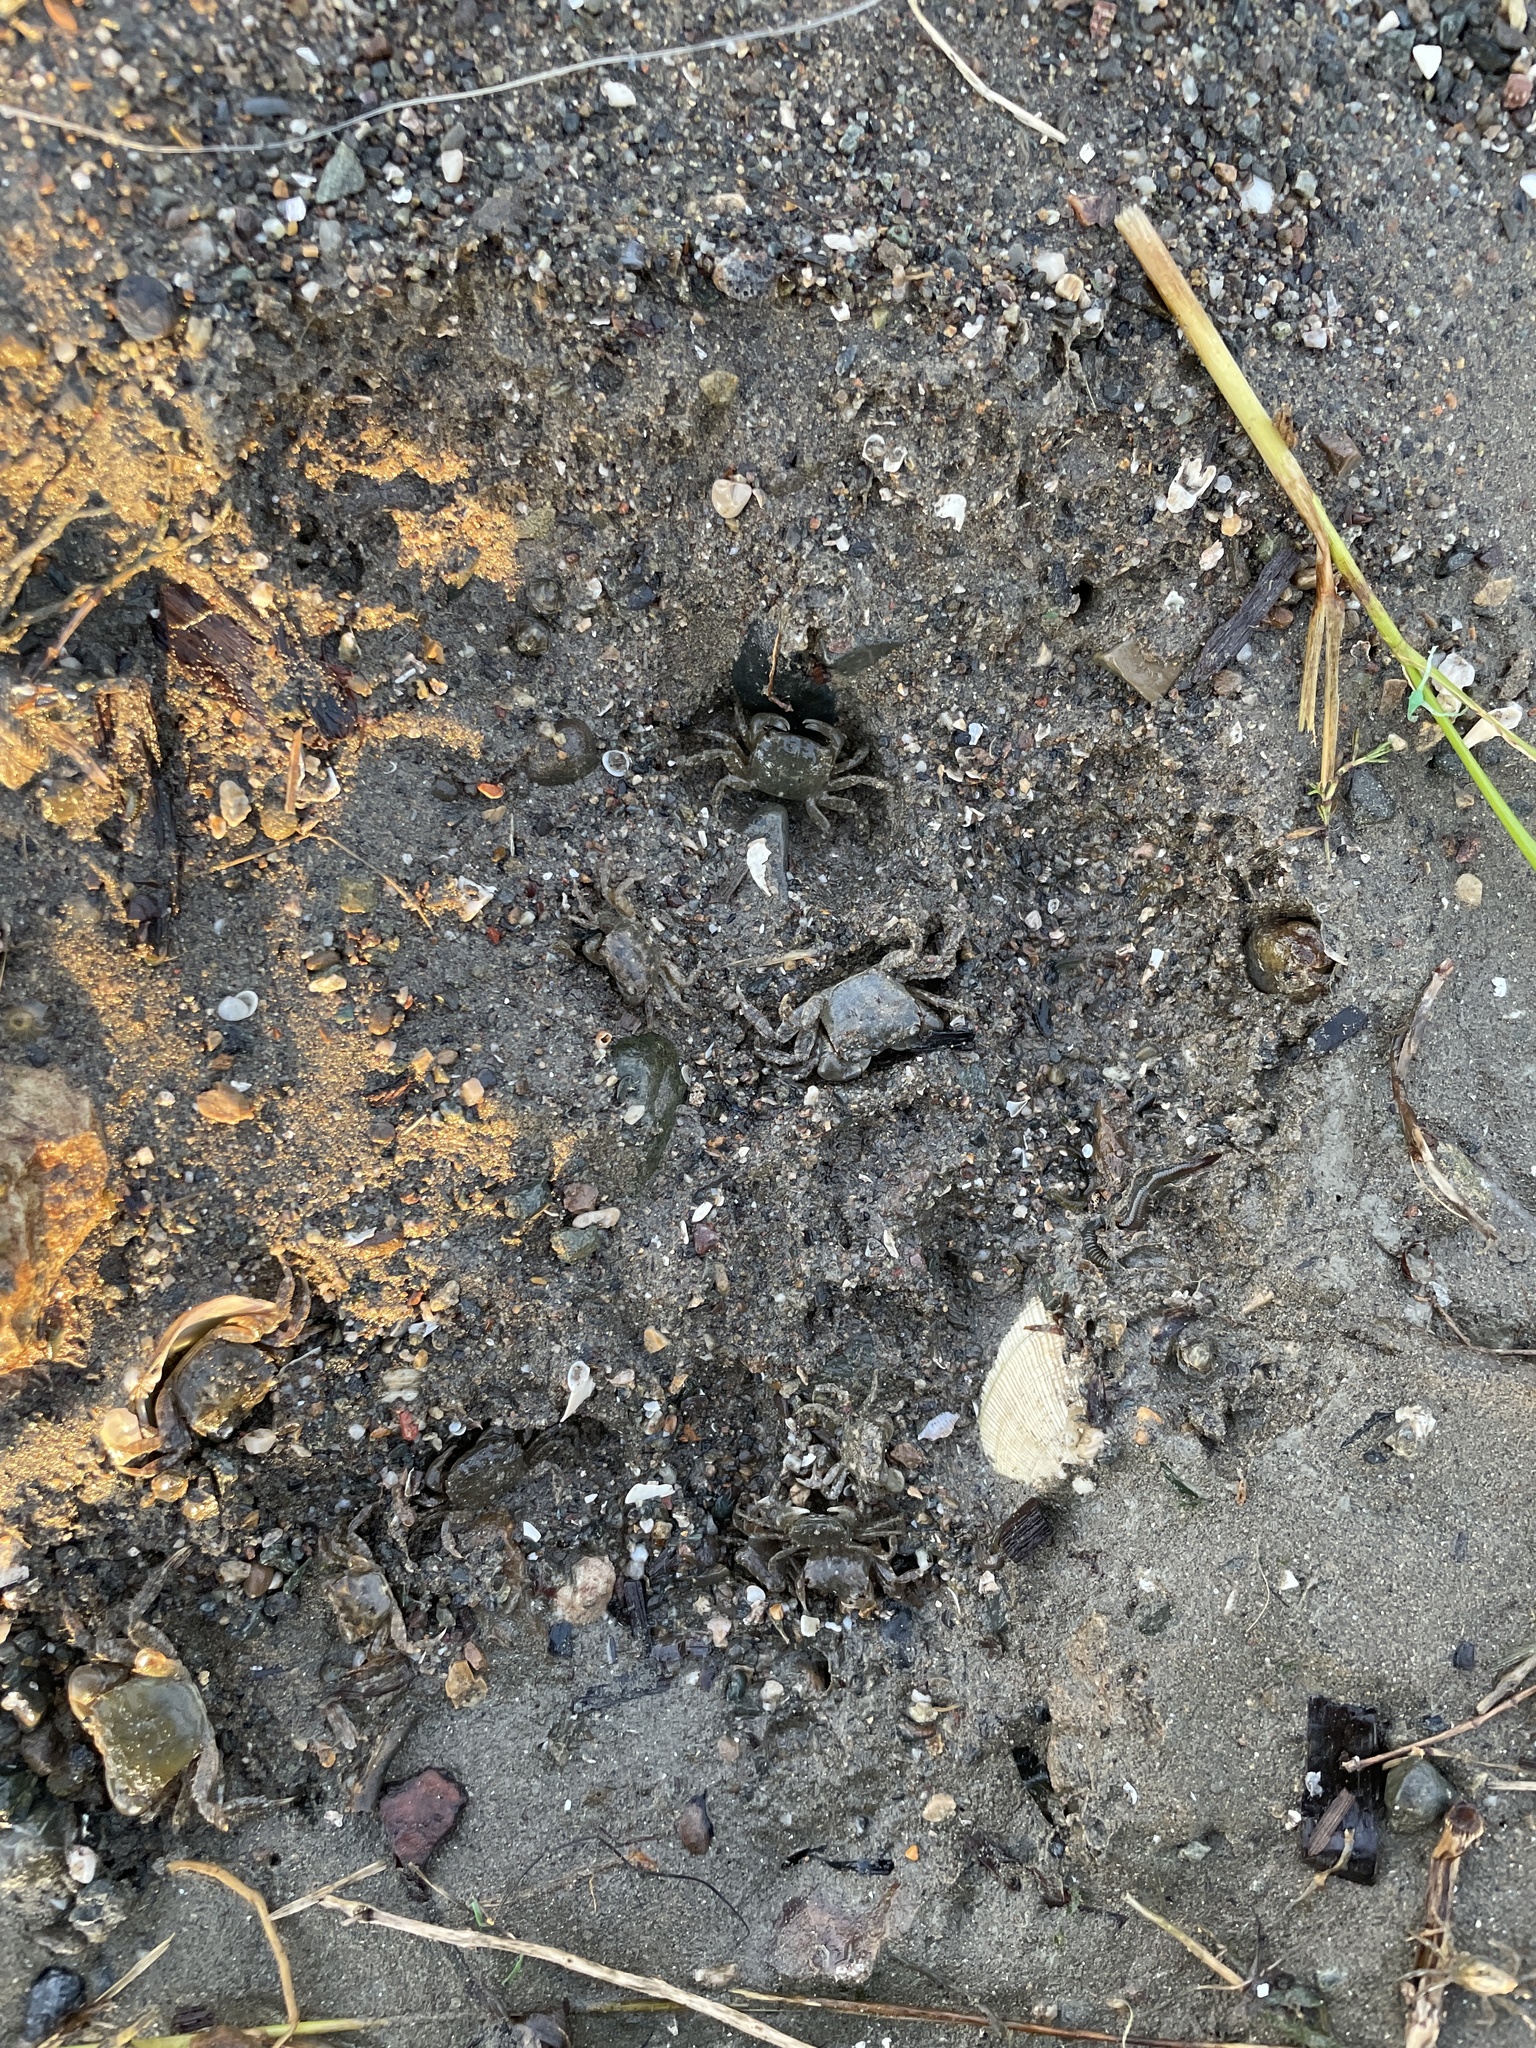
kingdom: Animalia
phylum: Arthropoda
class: Malacostraca
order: Decapoda
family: Varunidae
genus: Hemigrapsus
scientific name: Hemigrapsus oregonensis
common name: Yellow shore crab
